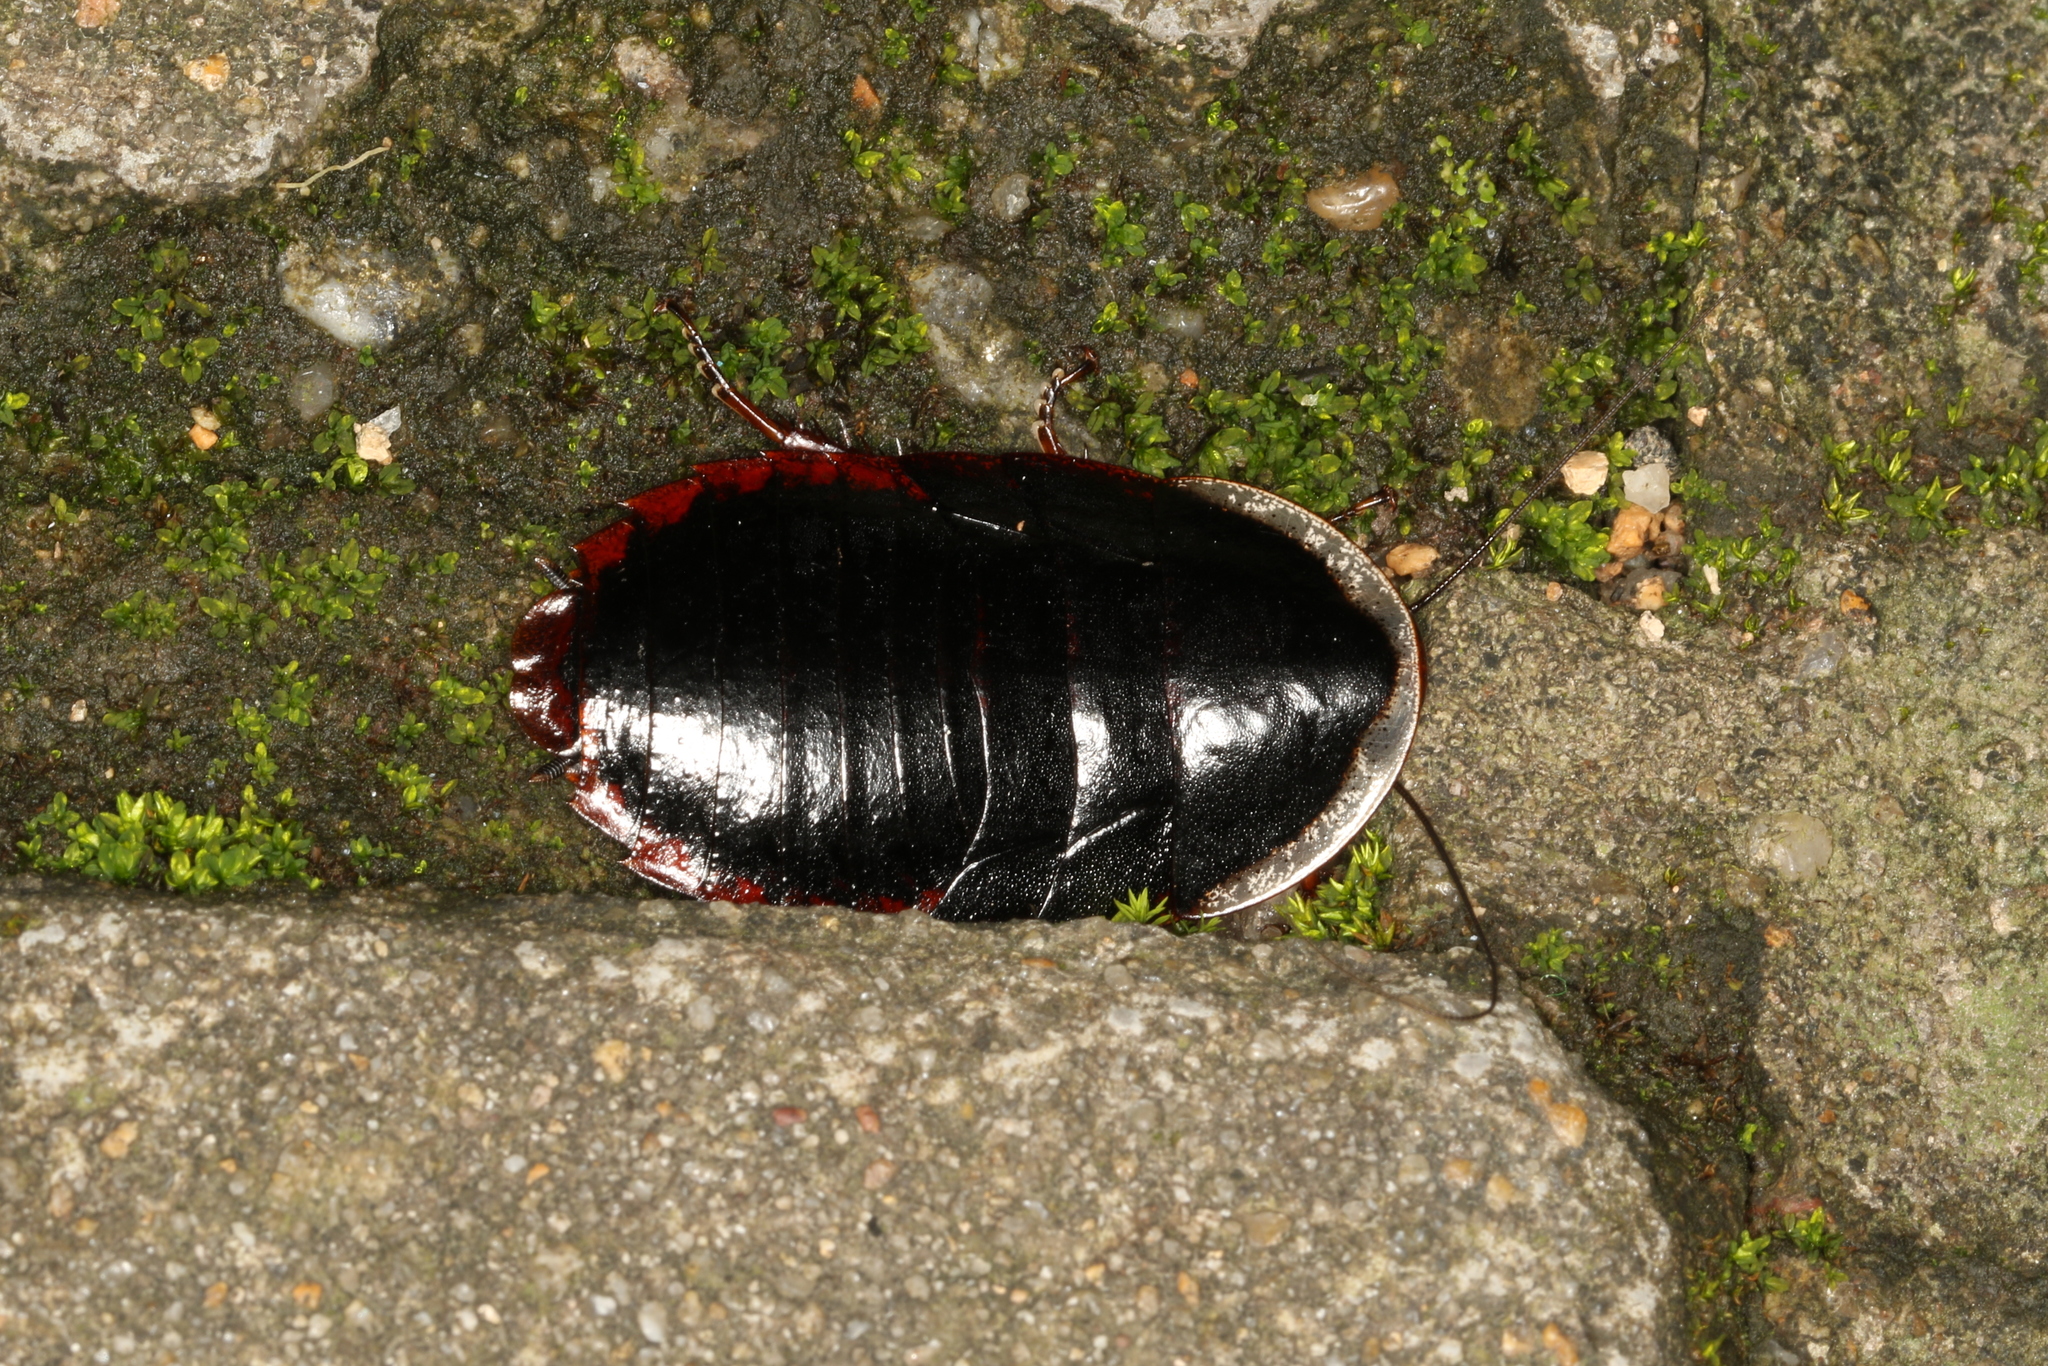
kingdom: Animalia
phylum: Arthropoda
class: Insecta
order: Blattodea
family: Blaberidae
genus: Opisthoplatia
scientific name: Opisthoplatia orientalis
